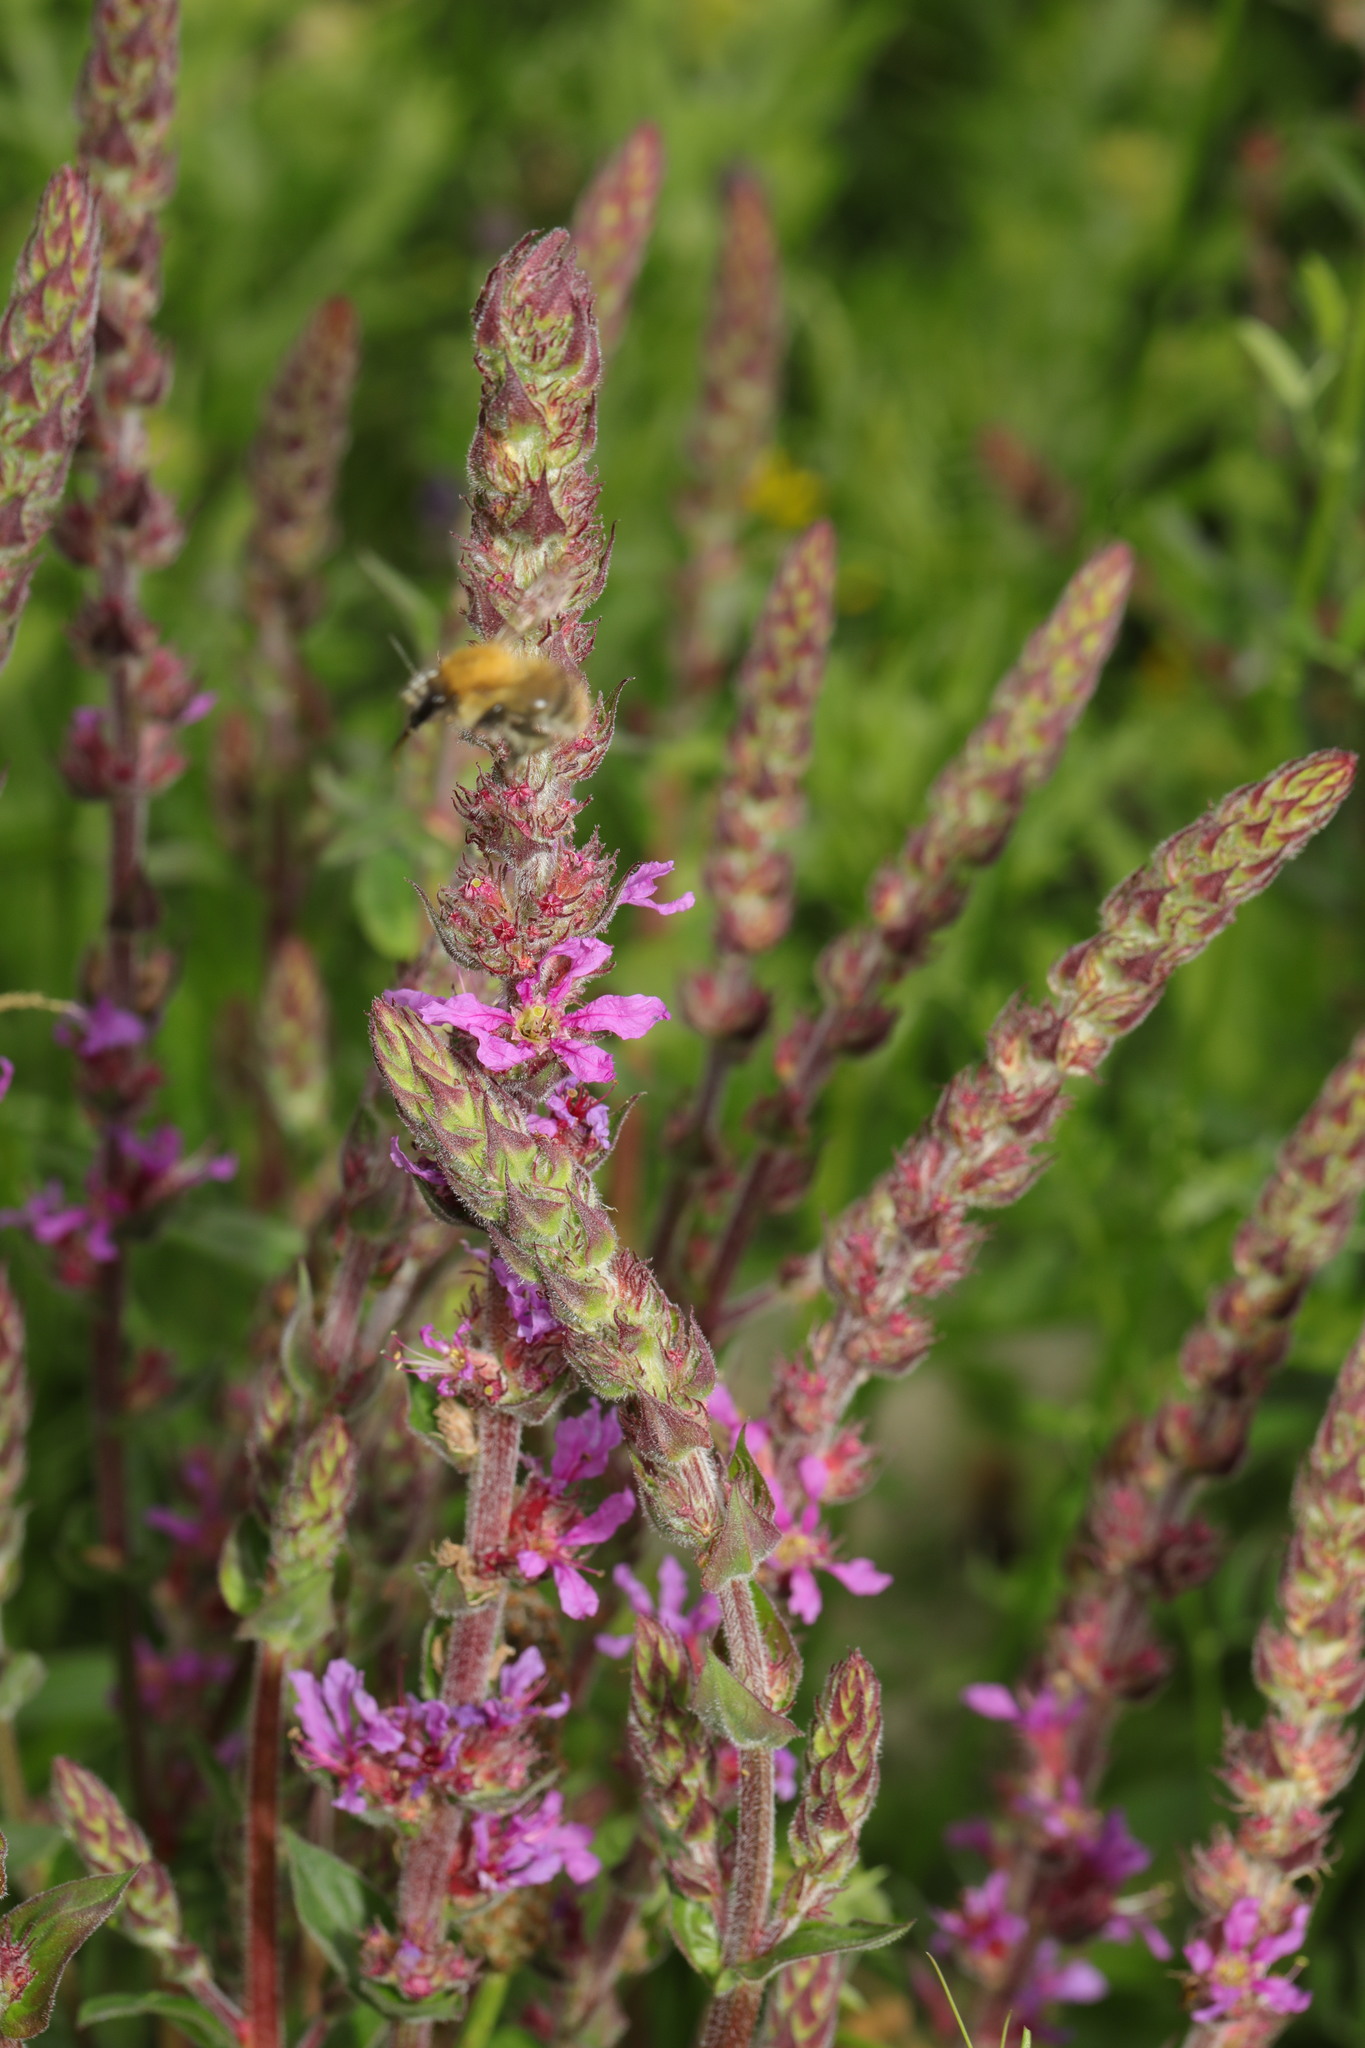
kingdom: Plantae
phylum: Tracheophyta
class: Magnoliopsida
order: Myrtales
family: Lythraceae
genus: Lythrum
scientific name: Lythrum salicaria
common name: Purple loosestrife
